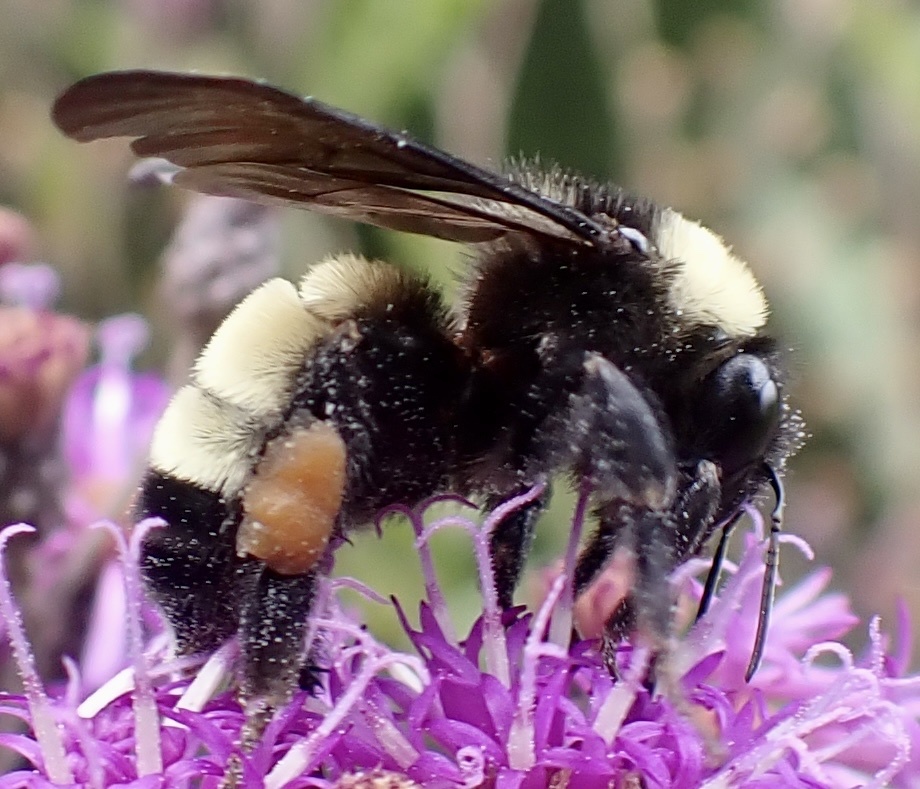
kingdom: Animalia
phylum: Arthropoda
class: Insecta
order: Hymenoptera
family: Apidae
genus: Bombus
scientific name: Bombus pensylvanicus
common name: Bumble bee
